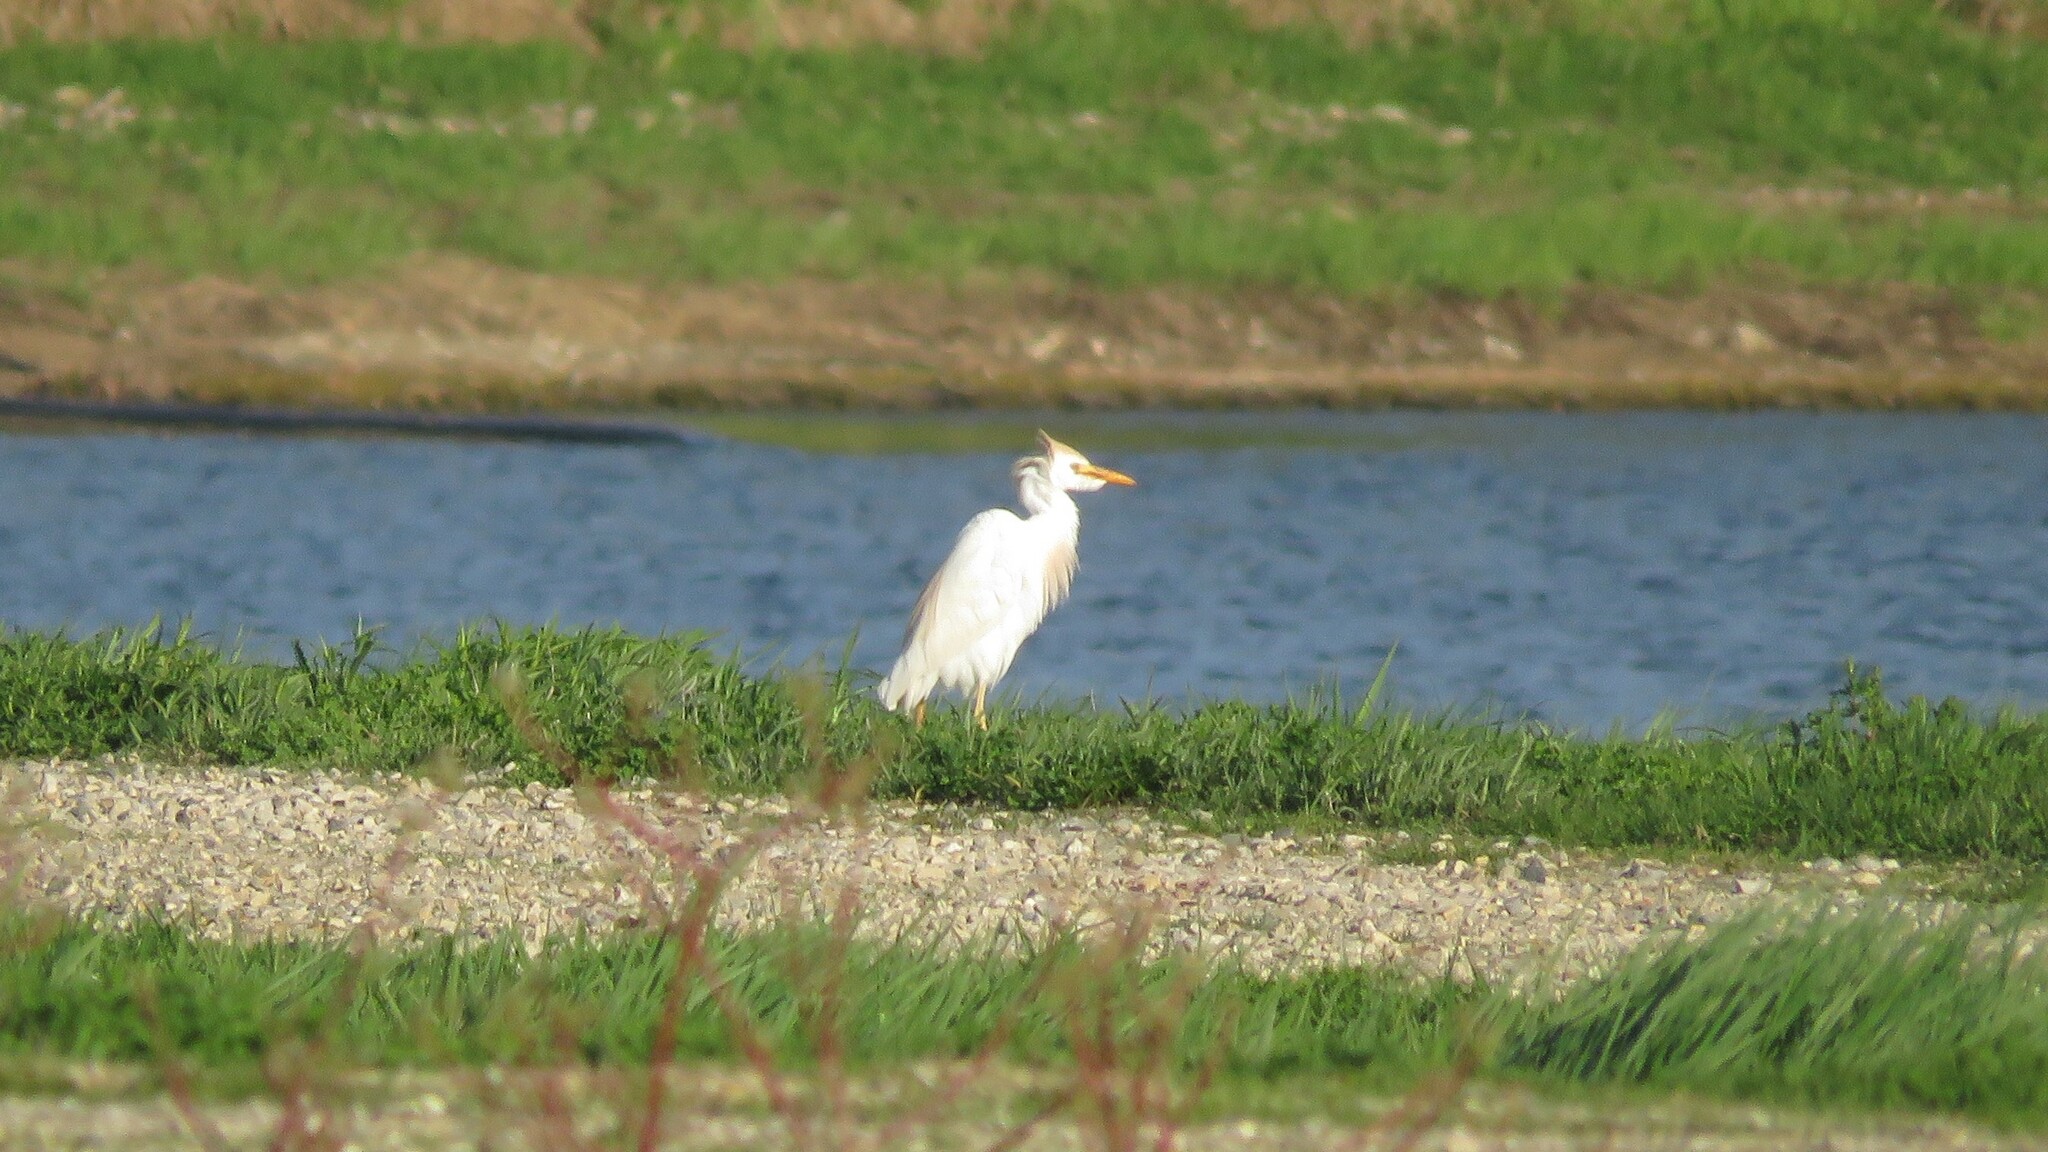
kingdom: Animalia
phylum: Chordata
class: Aves
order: Pelecaniformes
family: Ardeidae
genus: Bubulcus
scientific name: Bubulcus ibis
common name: Cattle egret
